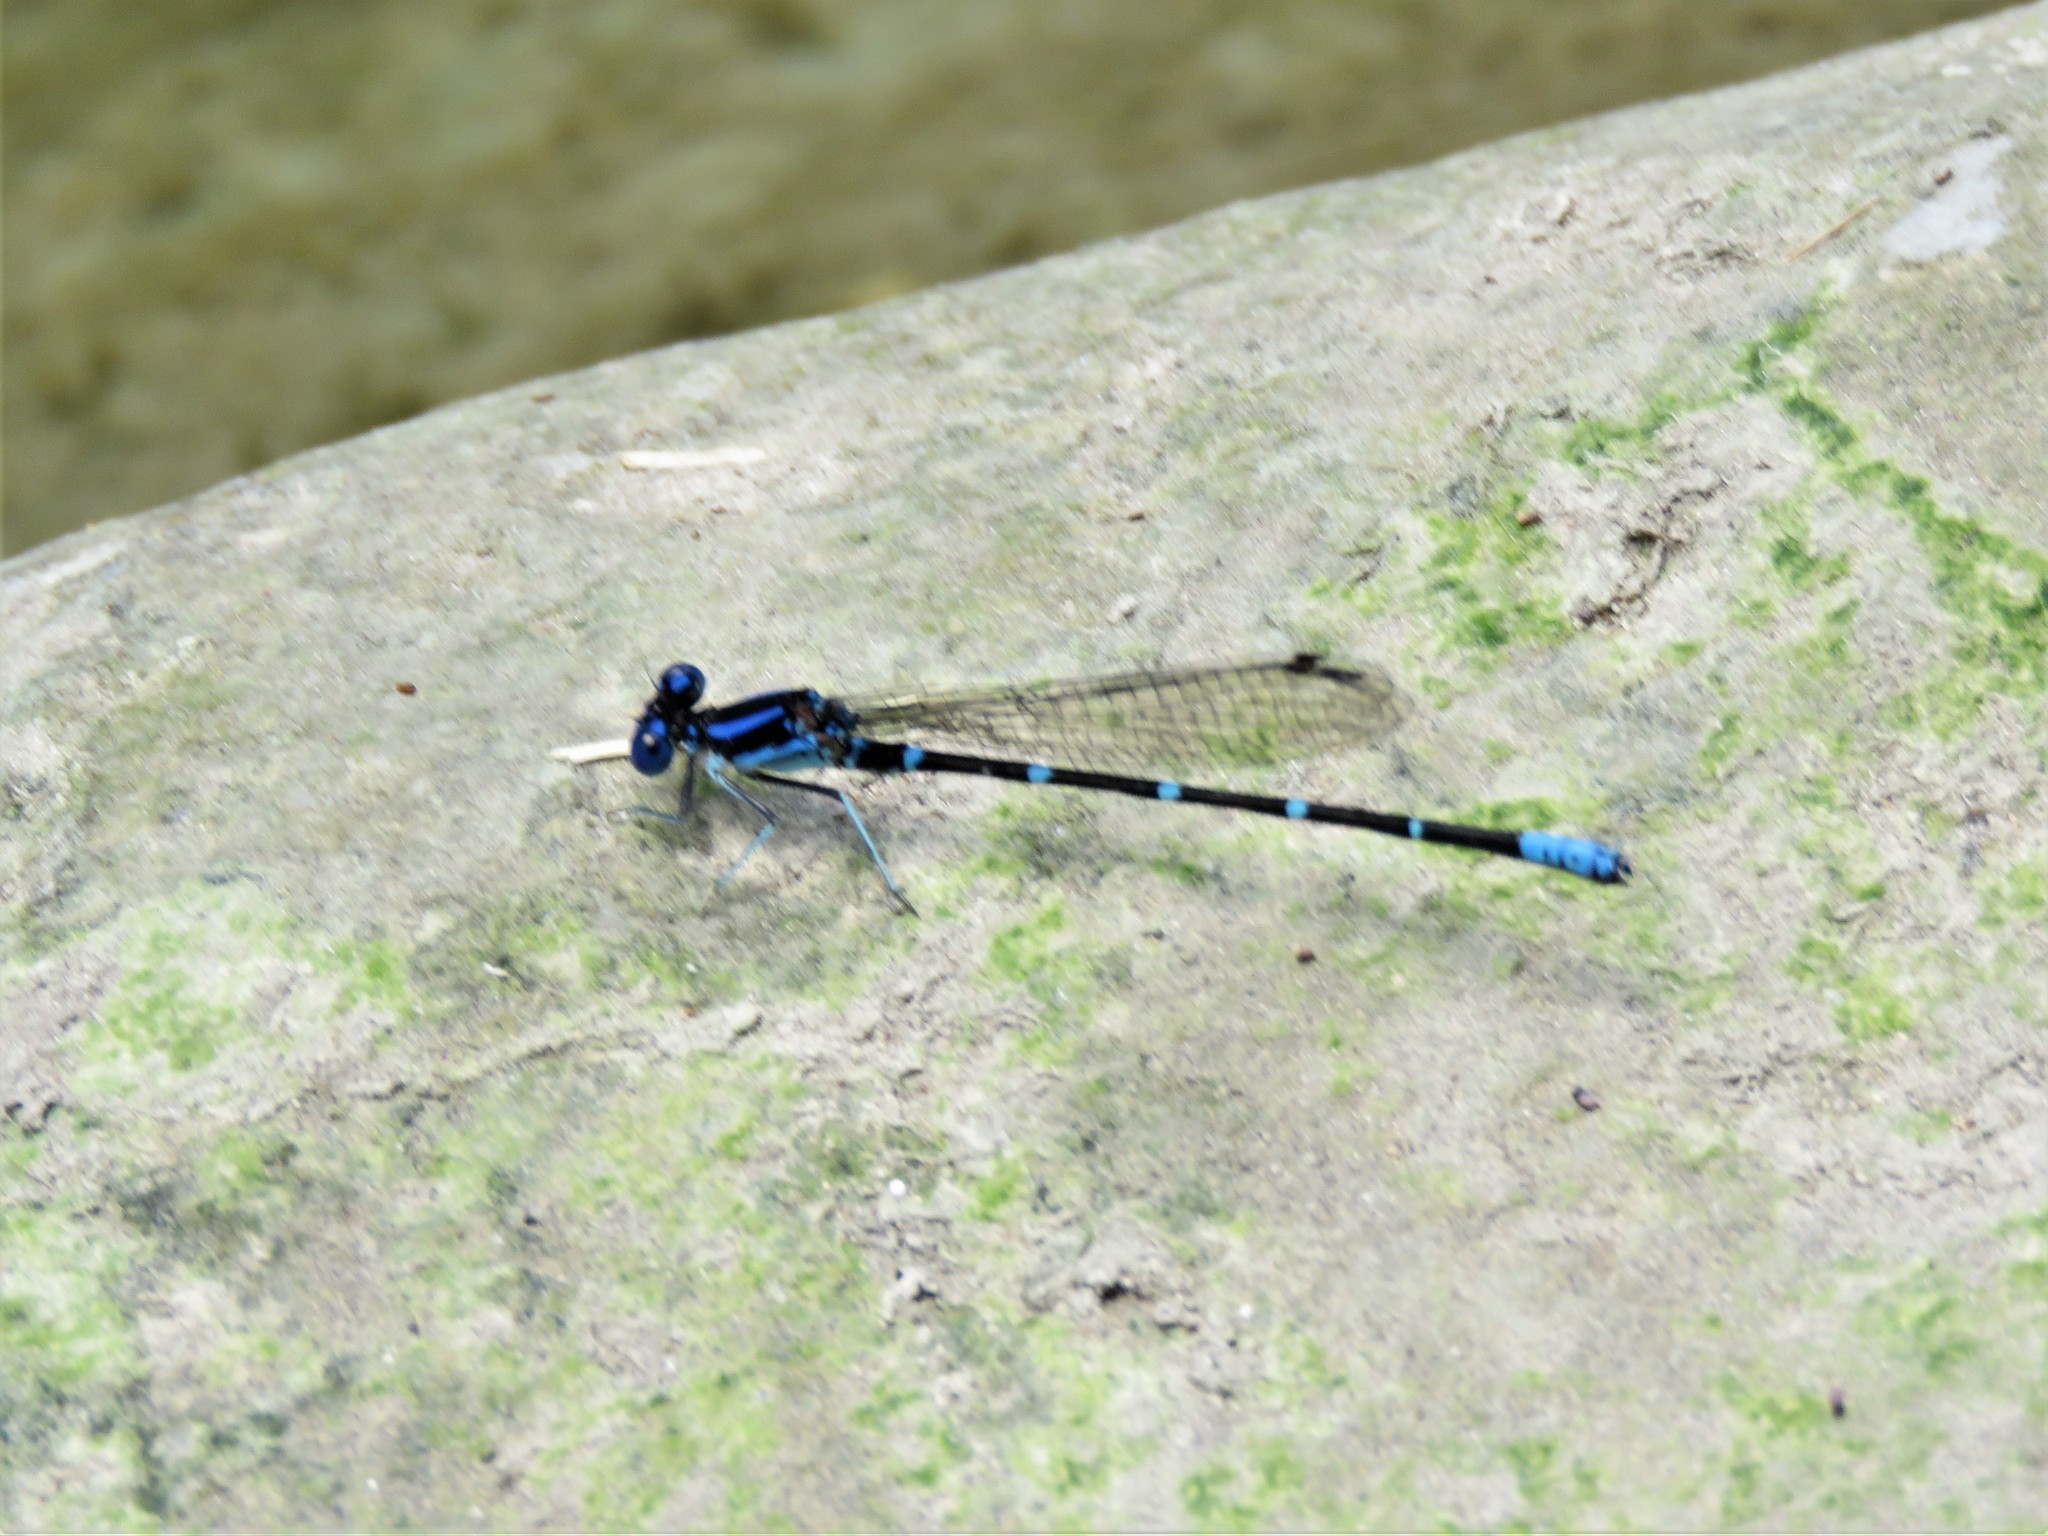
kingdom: Animalia
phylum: Arthropoda
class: Insecta
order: Odonata
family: Coenagrionidae
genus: Argia
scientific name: Argia sedula
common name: Blue-ringed dancer
